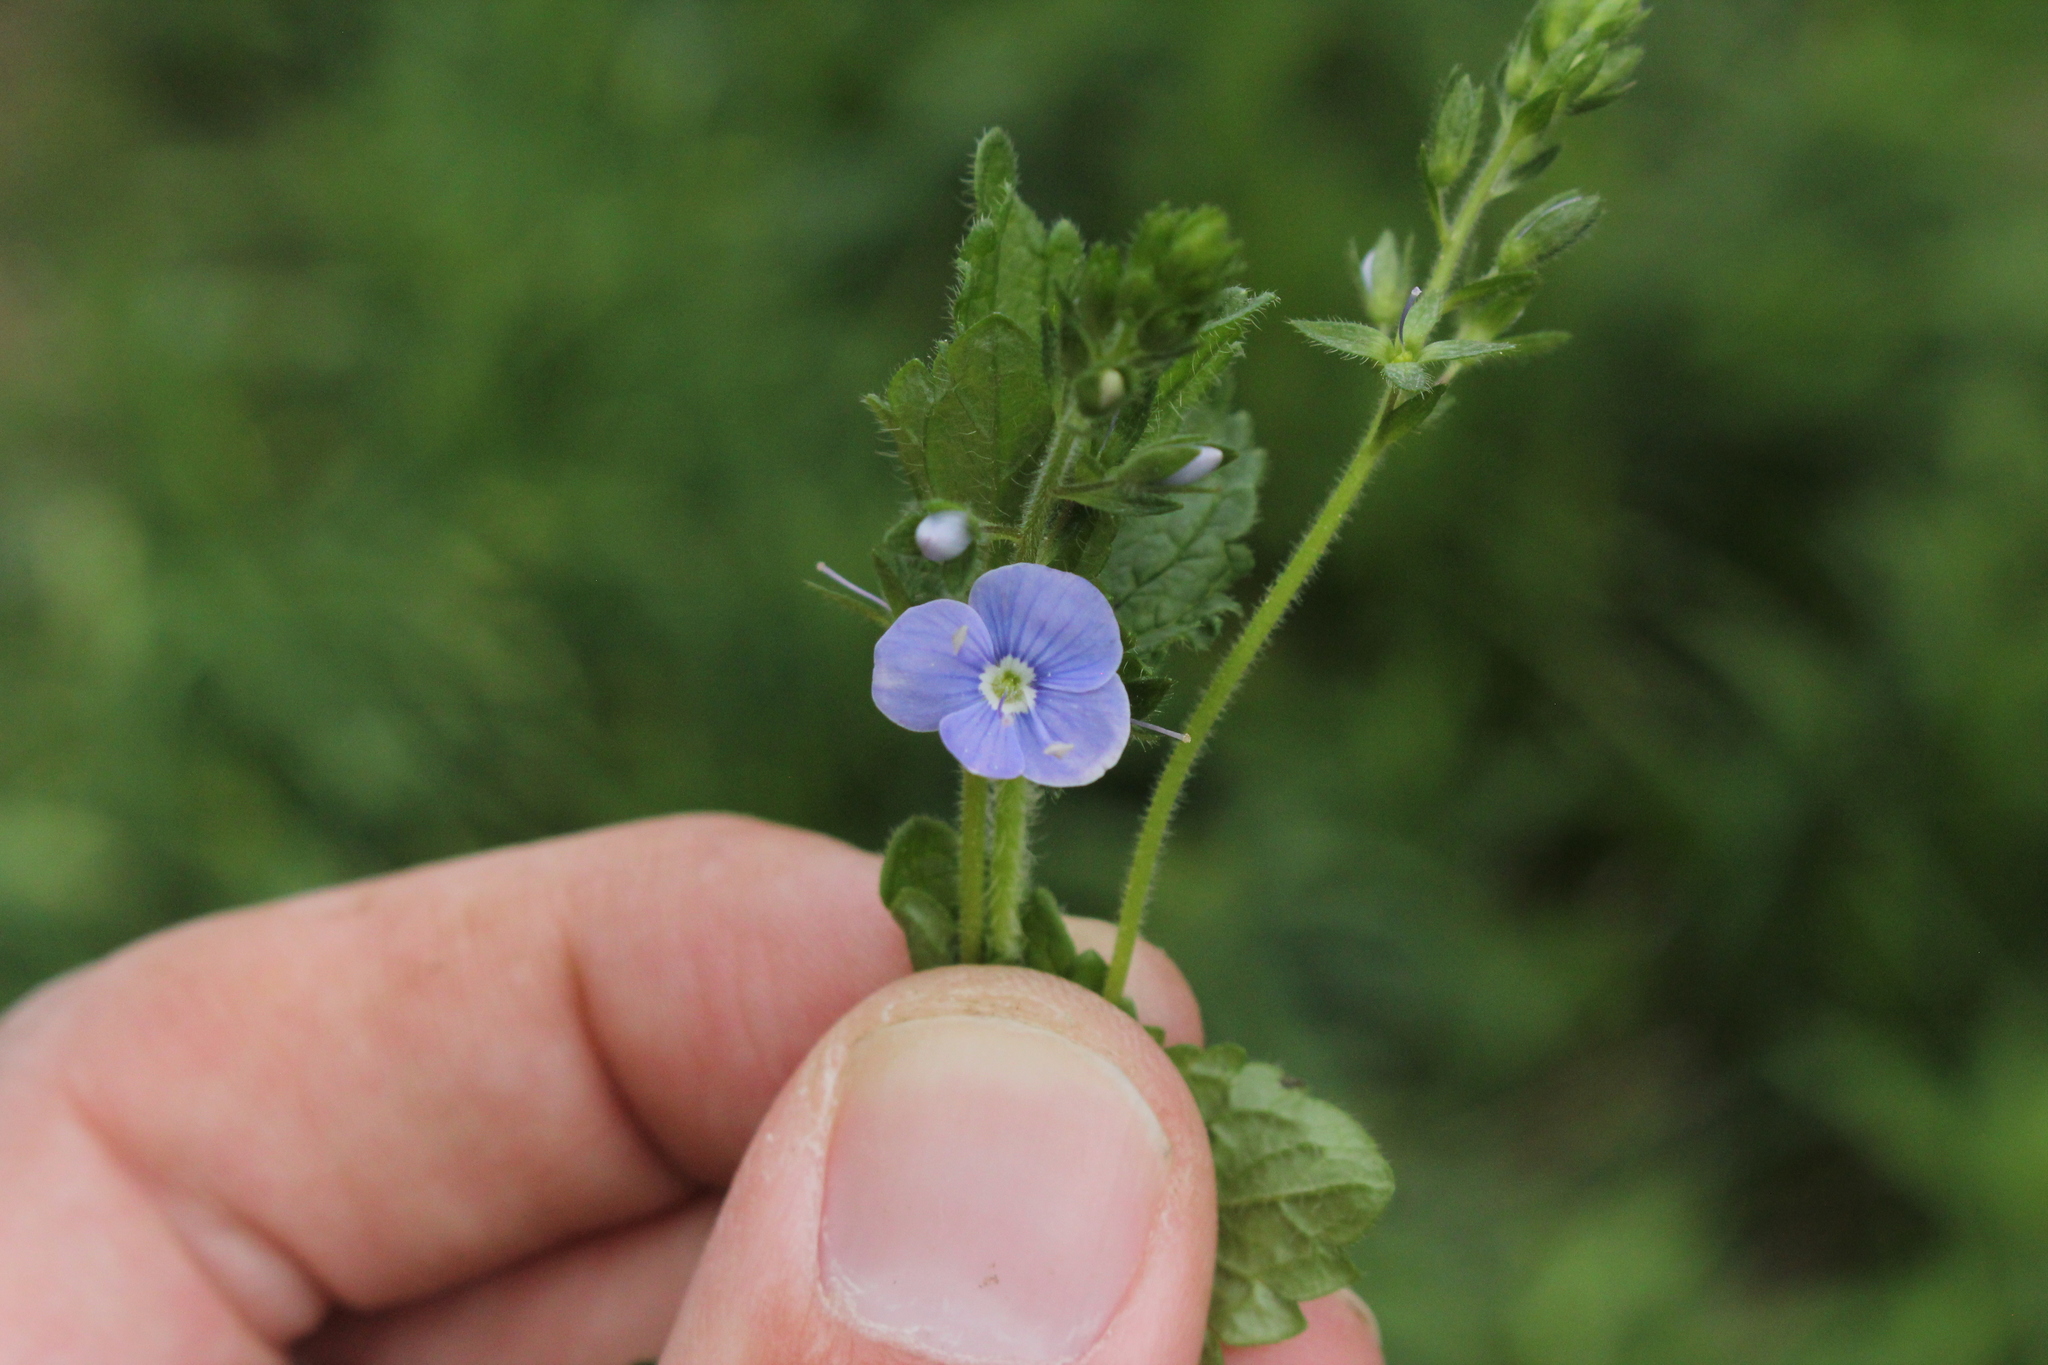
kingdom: Plantae
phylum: Tracheophyta
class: Magnoliopsida
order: Lamiales
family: Plantaginaceae
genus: Veronica
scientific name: Veronica chamaedrys
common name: Germander speedwell
